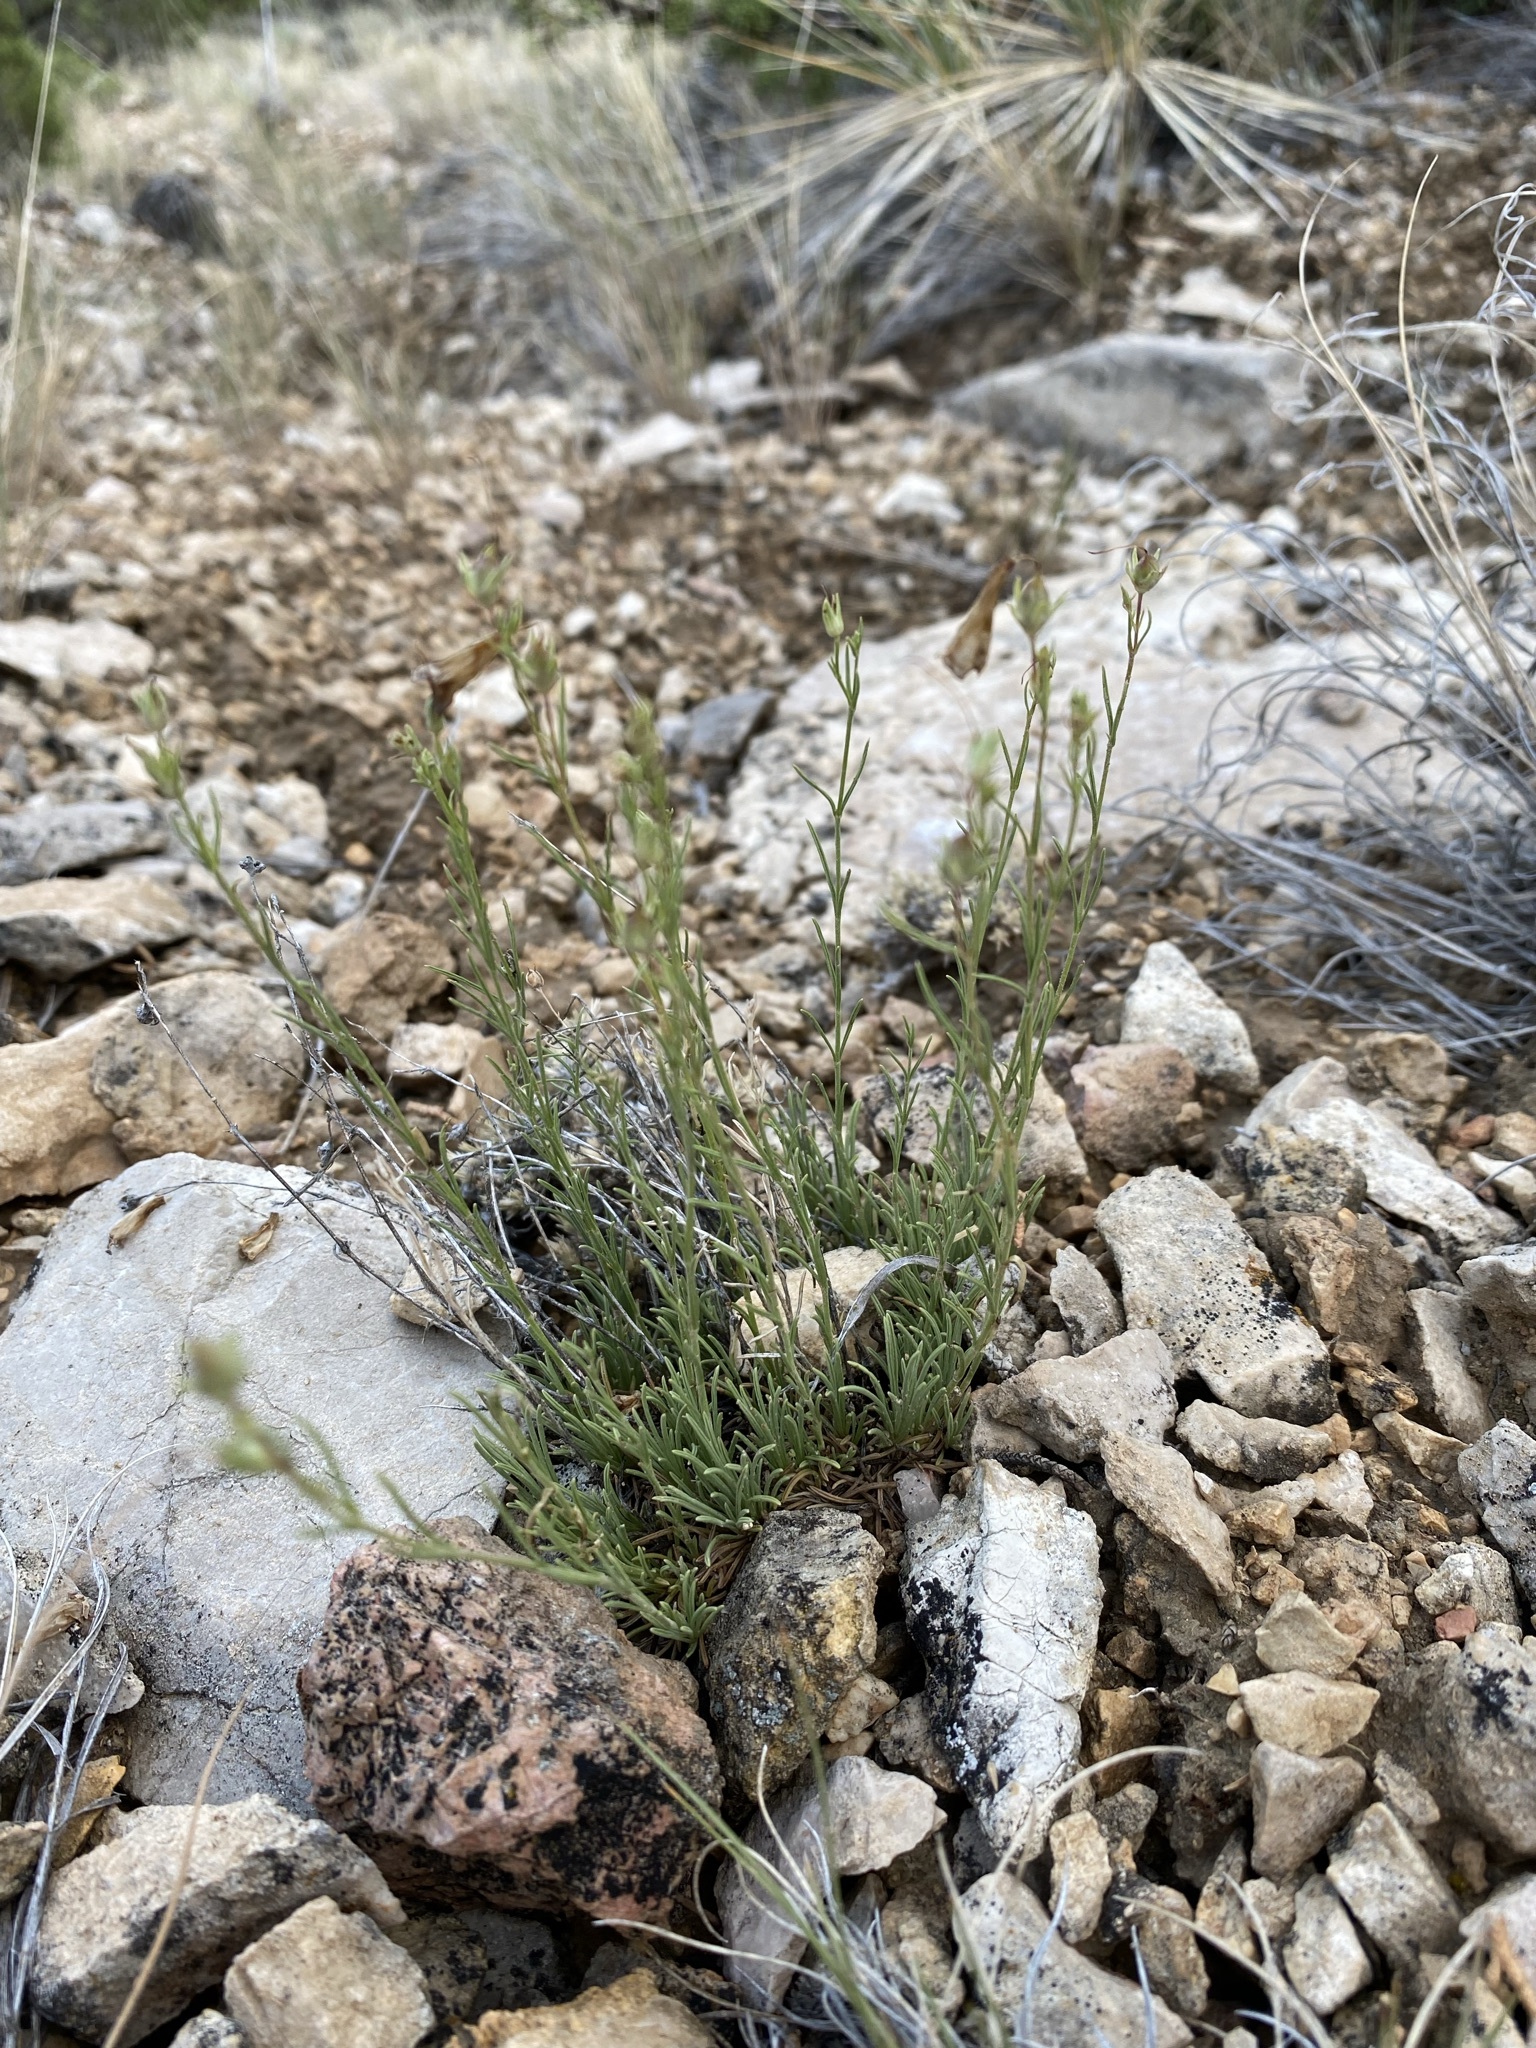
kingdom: Plantae
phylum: Tracheophyta
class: Magnoliopsida
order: Lamiales
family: Plantaginaceae
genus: Penstemon
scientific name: Penstemon laricifolius
